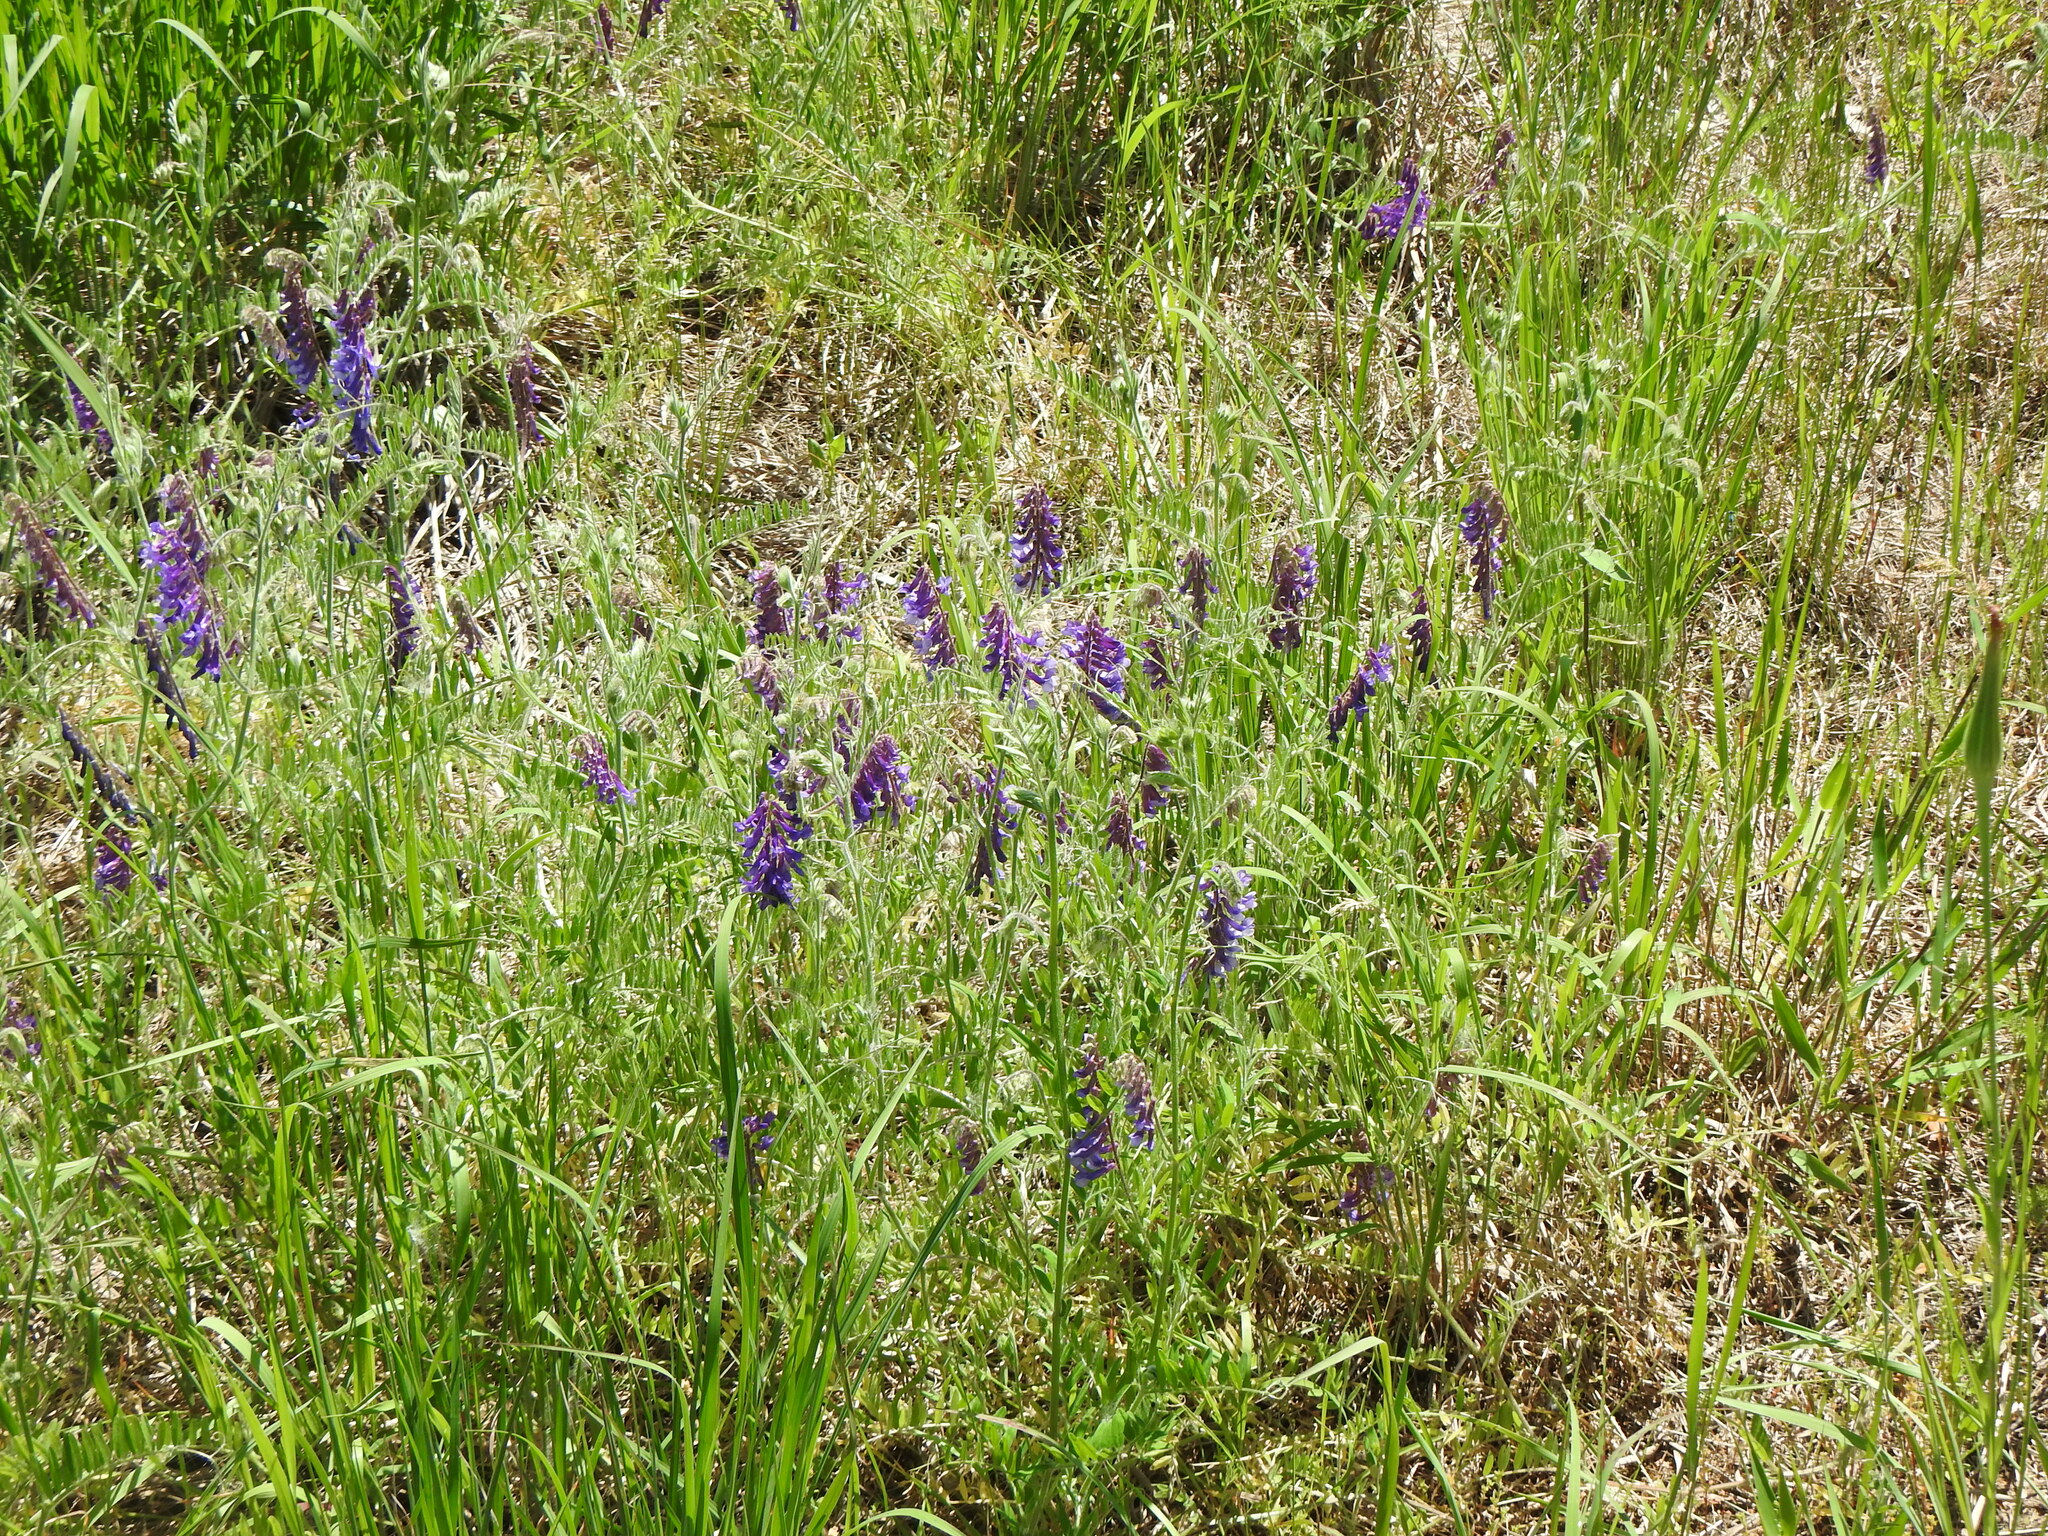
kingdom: Plantae
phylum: Tracheophyta
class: Magnoliopsida
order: Fabales
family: Fabaceae
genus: Vicia
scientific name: Vicia villosa
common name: Fodder vetch
